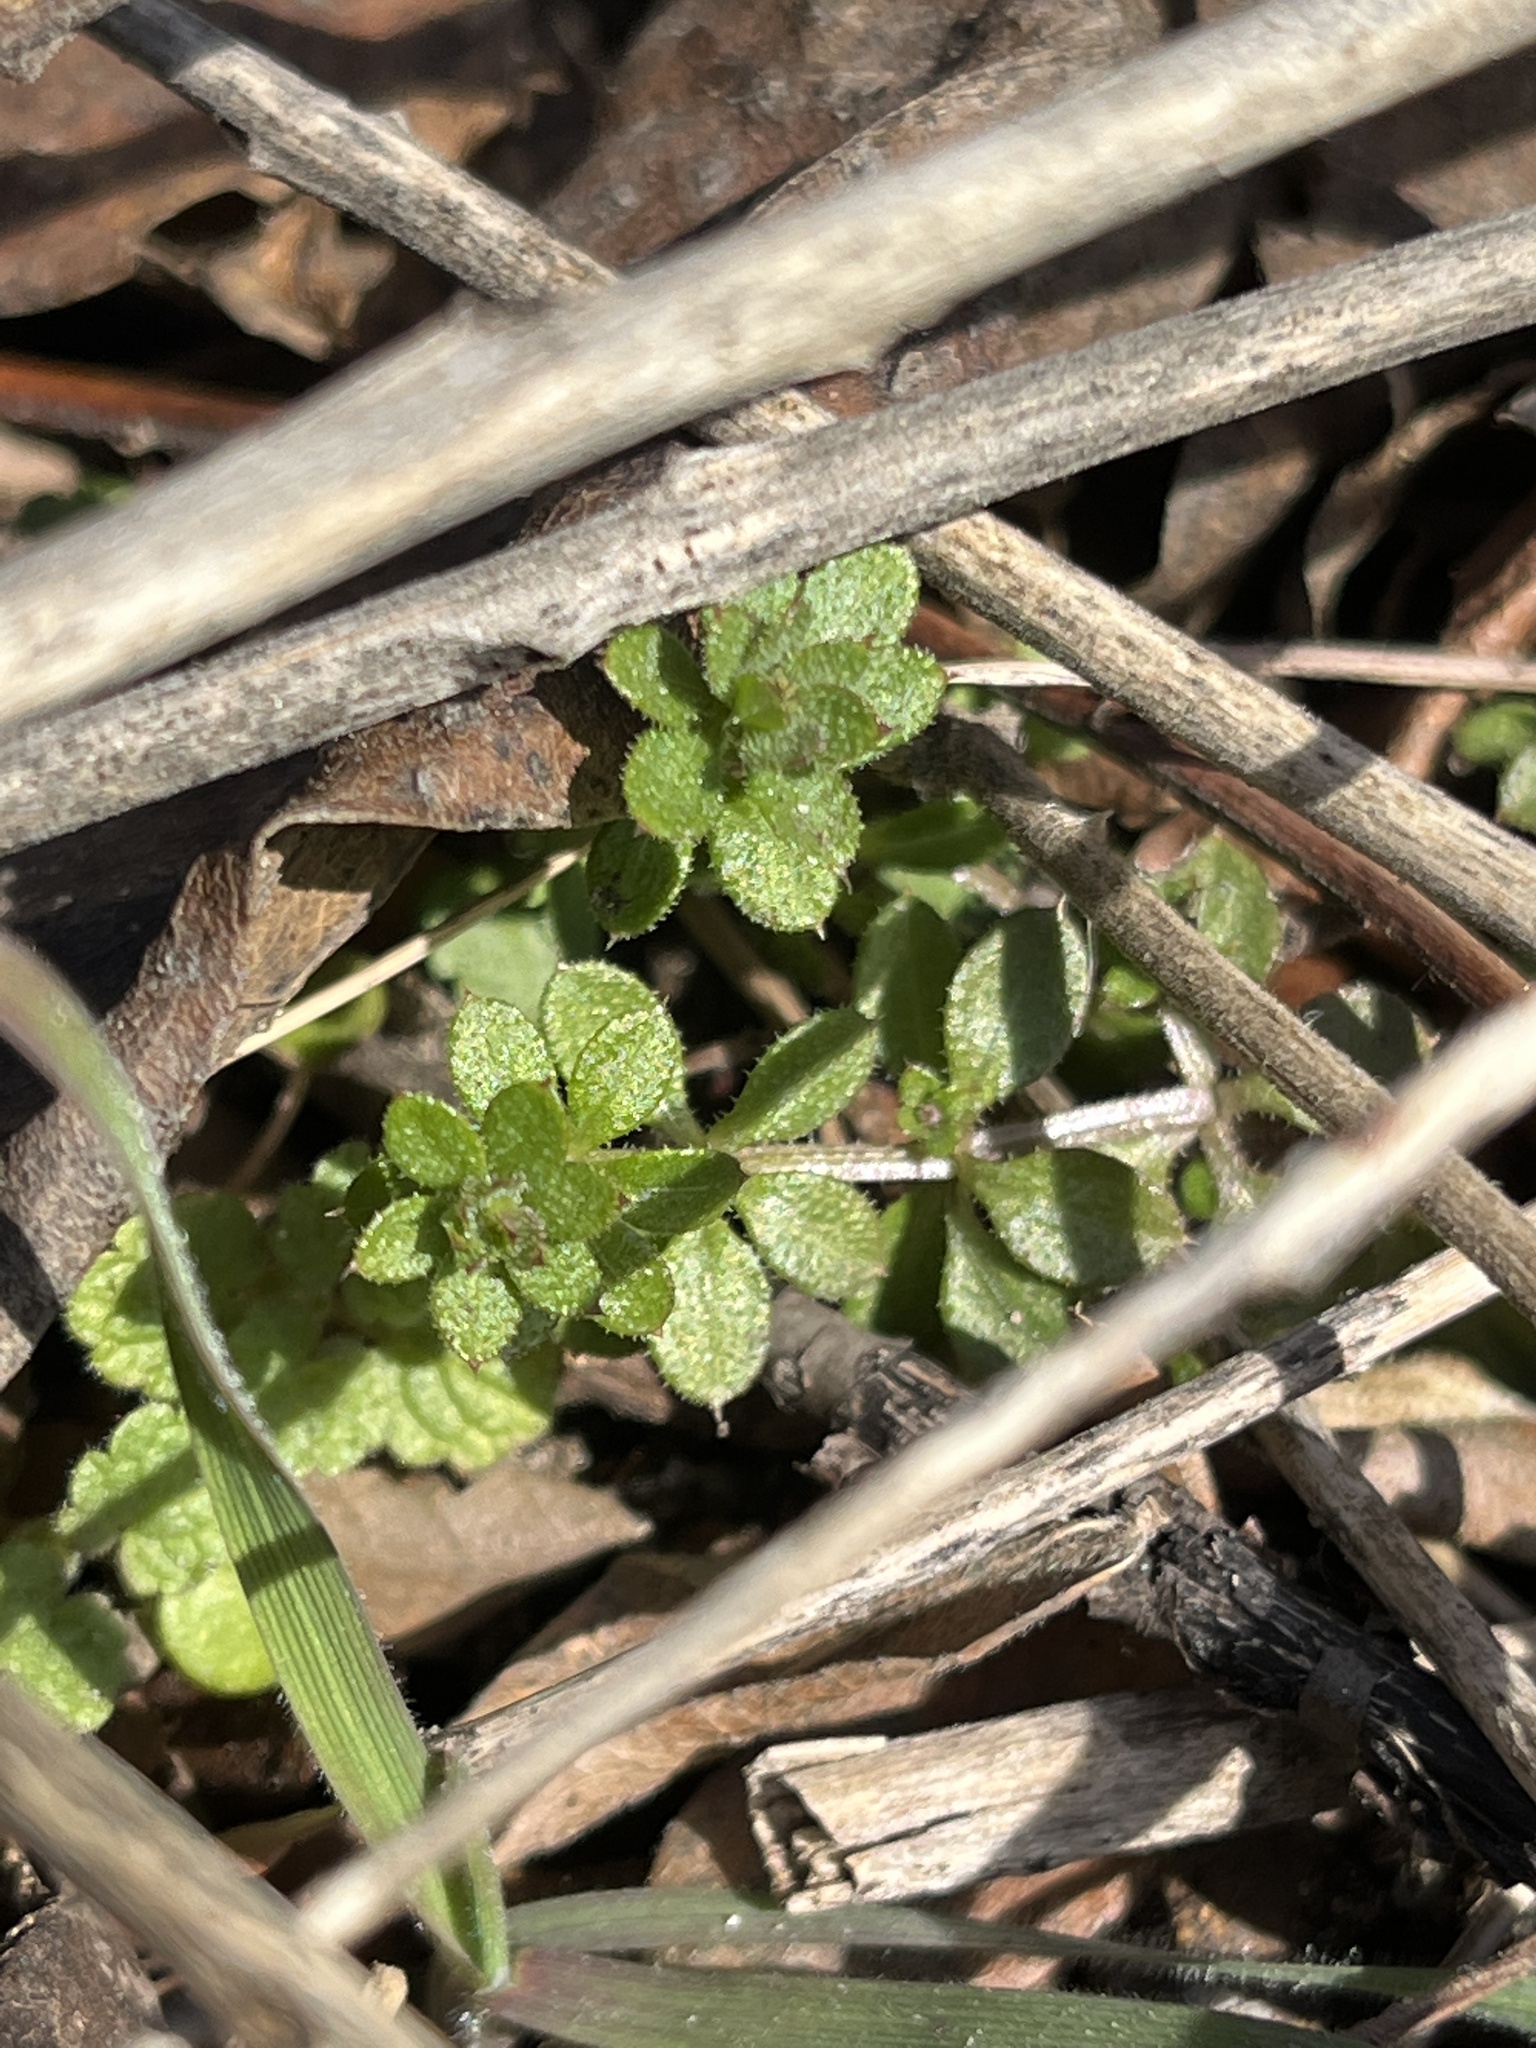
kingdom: Plantae
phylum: Tracheophyta
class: Magnoliopsida
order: Gentianales
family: Rubiaceae
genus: Galium
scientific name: Galium aparine
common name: Cleavers
